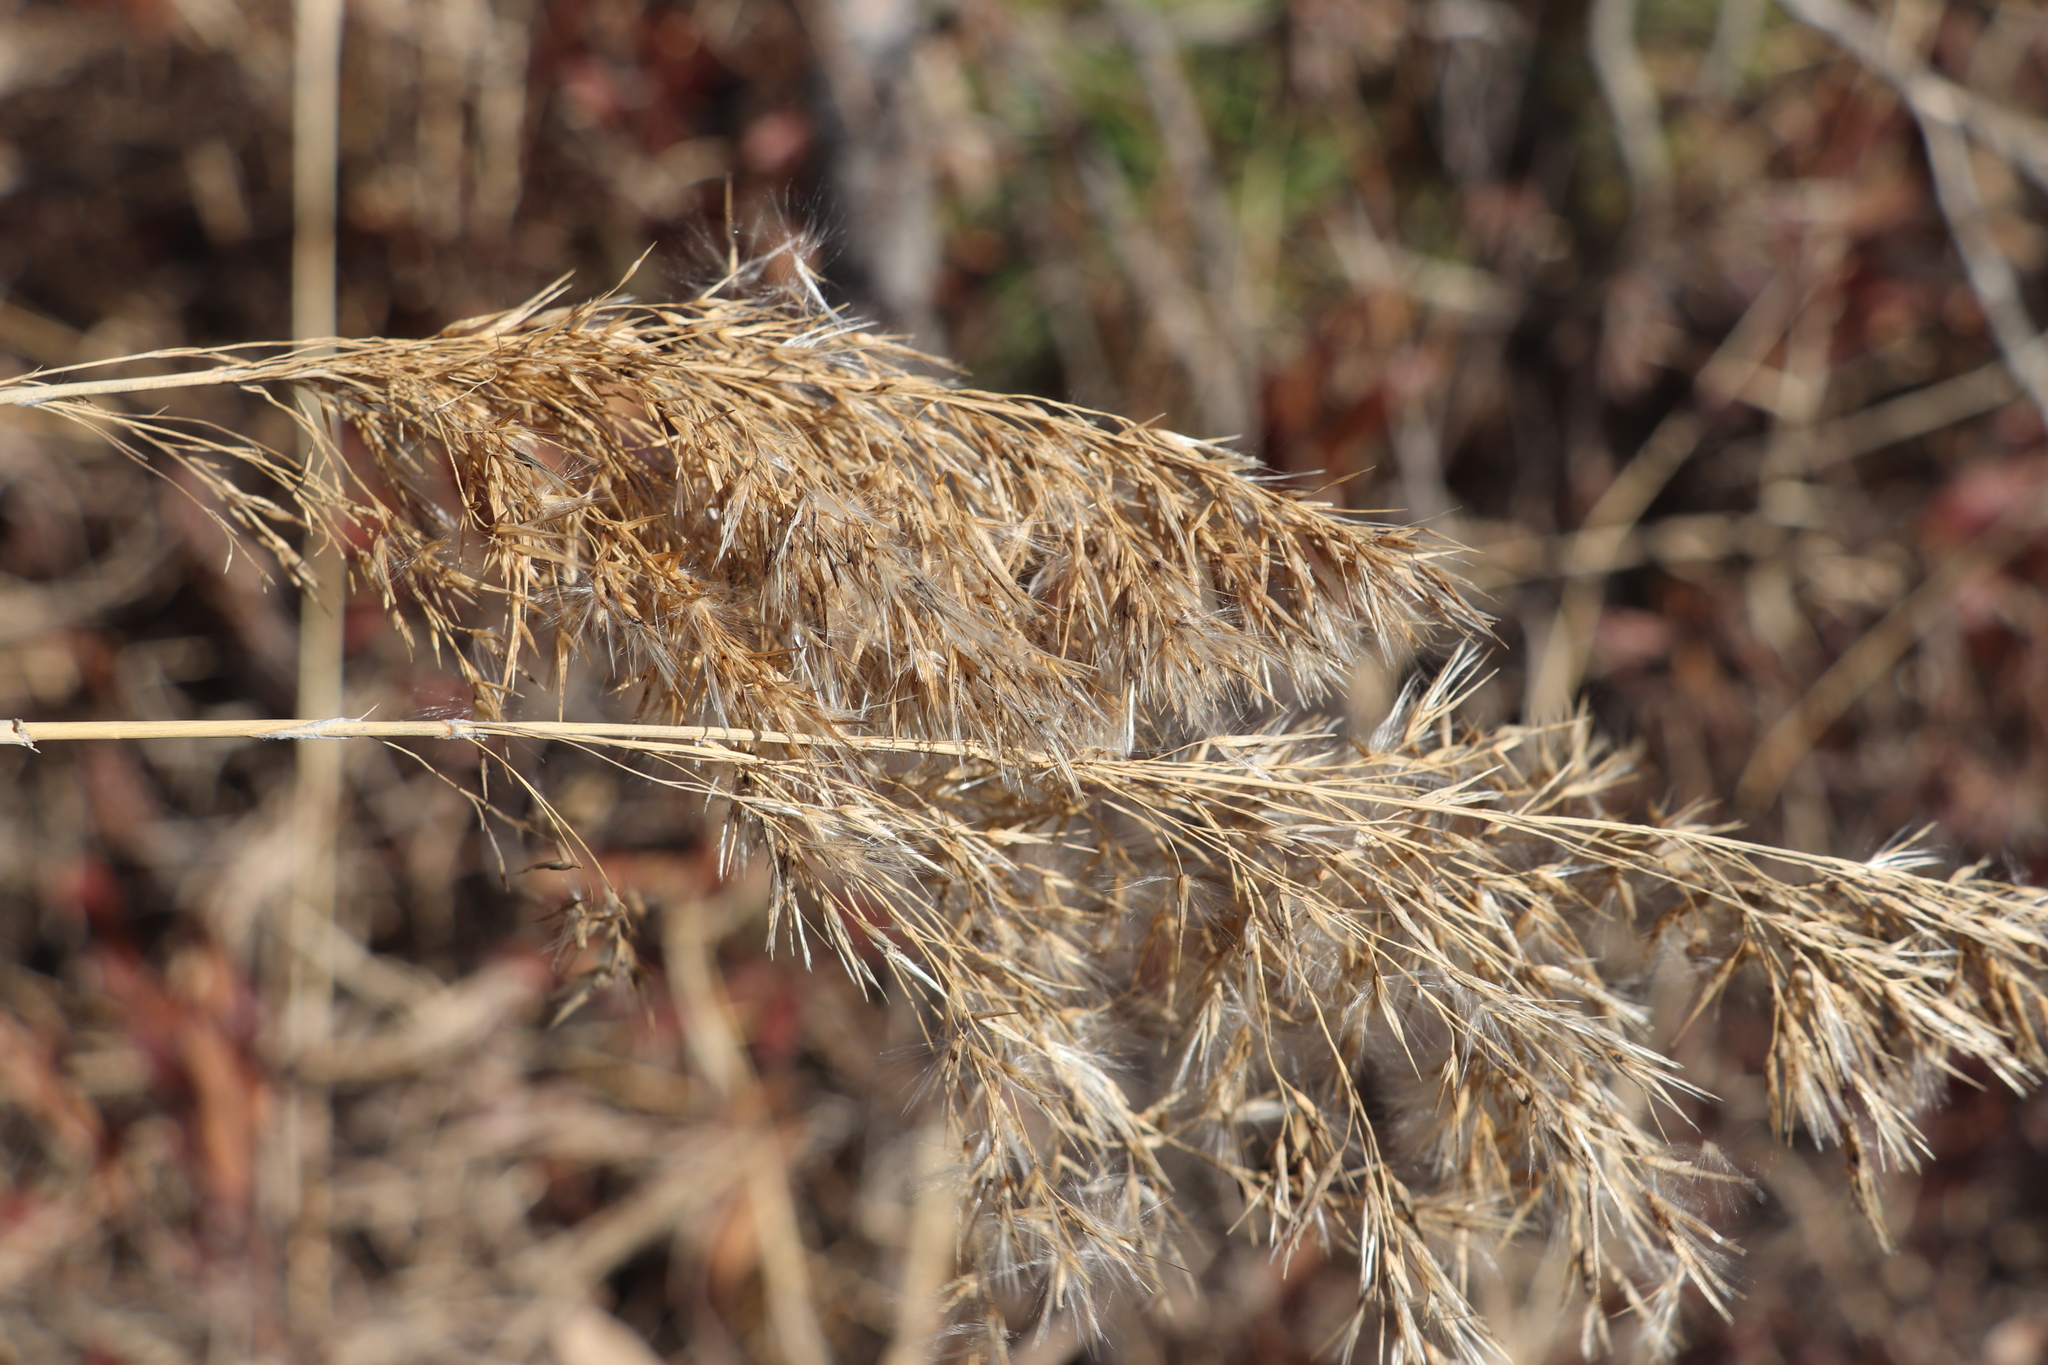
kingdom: Plantae
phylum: Tracheophyta
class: Liliopsida
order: Poales
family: Poaceae
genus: Phragmites
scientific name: Phragmites australis
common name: Common reed
